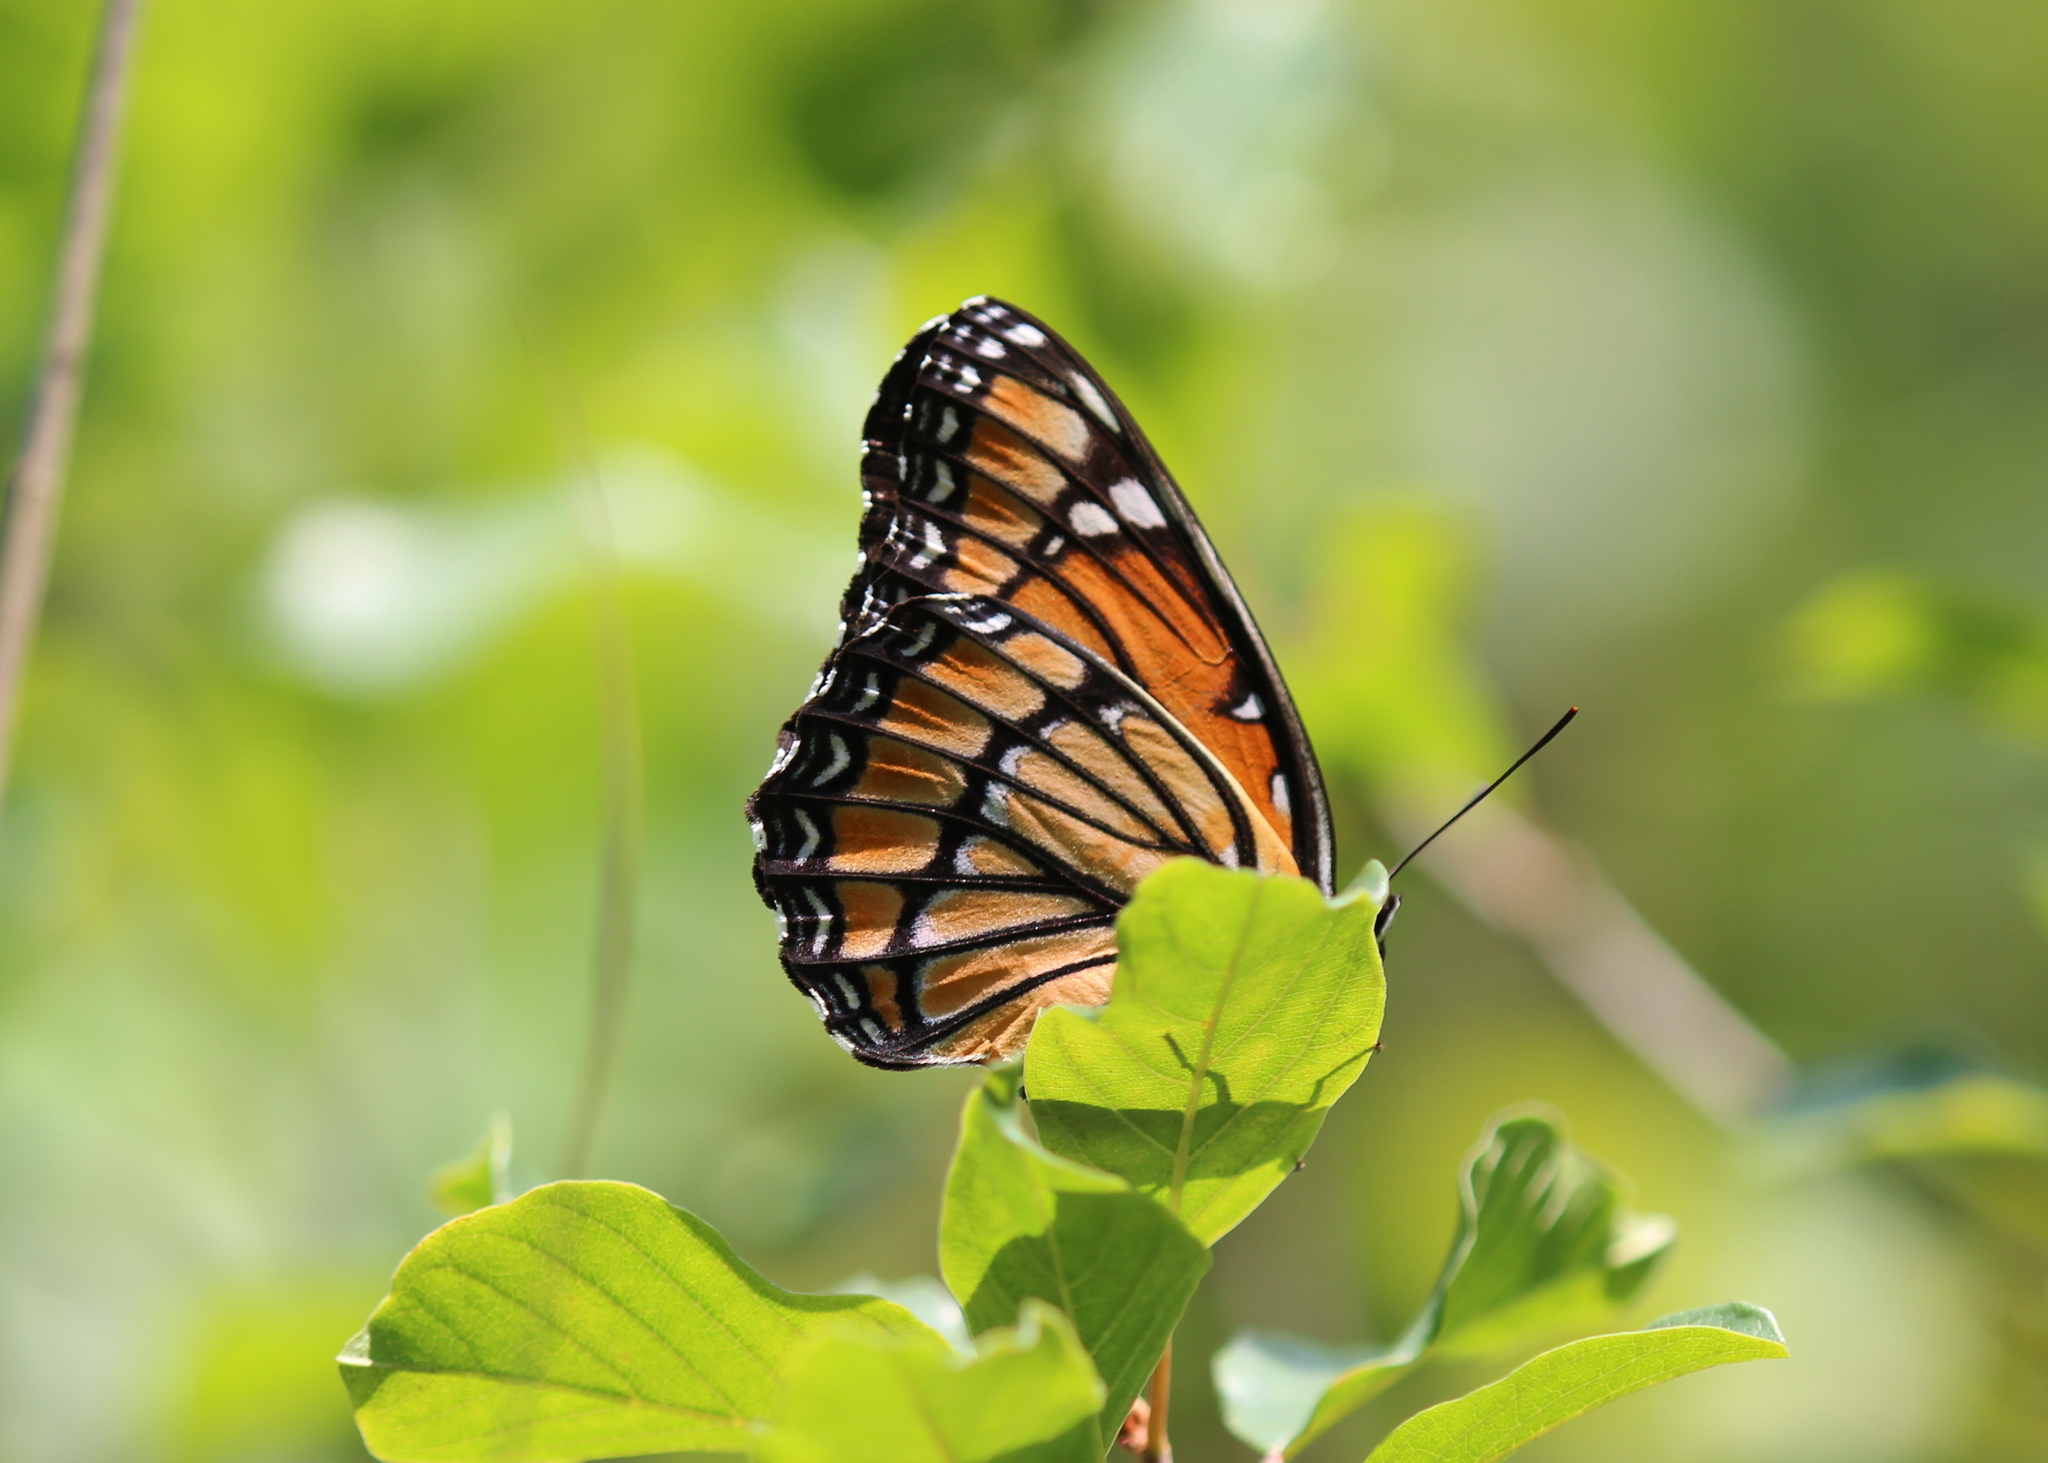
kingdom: Animalia
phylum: Arthropoda
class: Insecta
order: Lepidoptera
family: Nymphalidae
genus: Limenitis
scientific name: Limenitis archippus
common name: Viceroy
